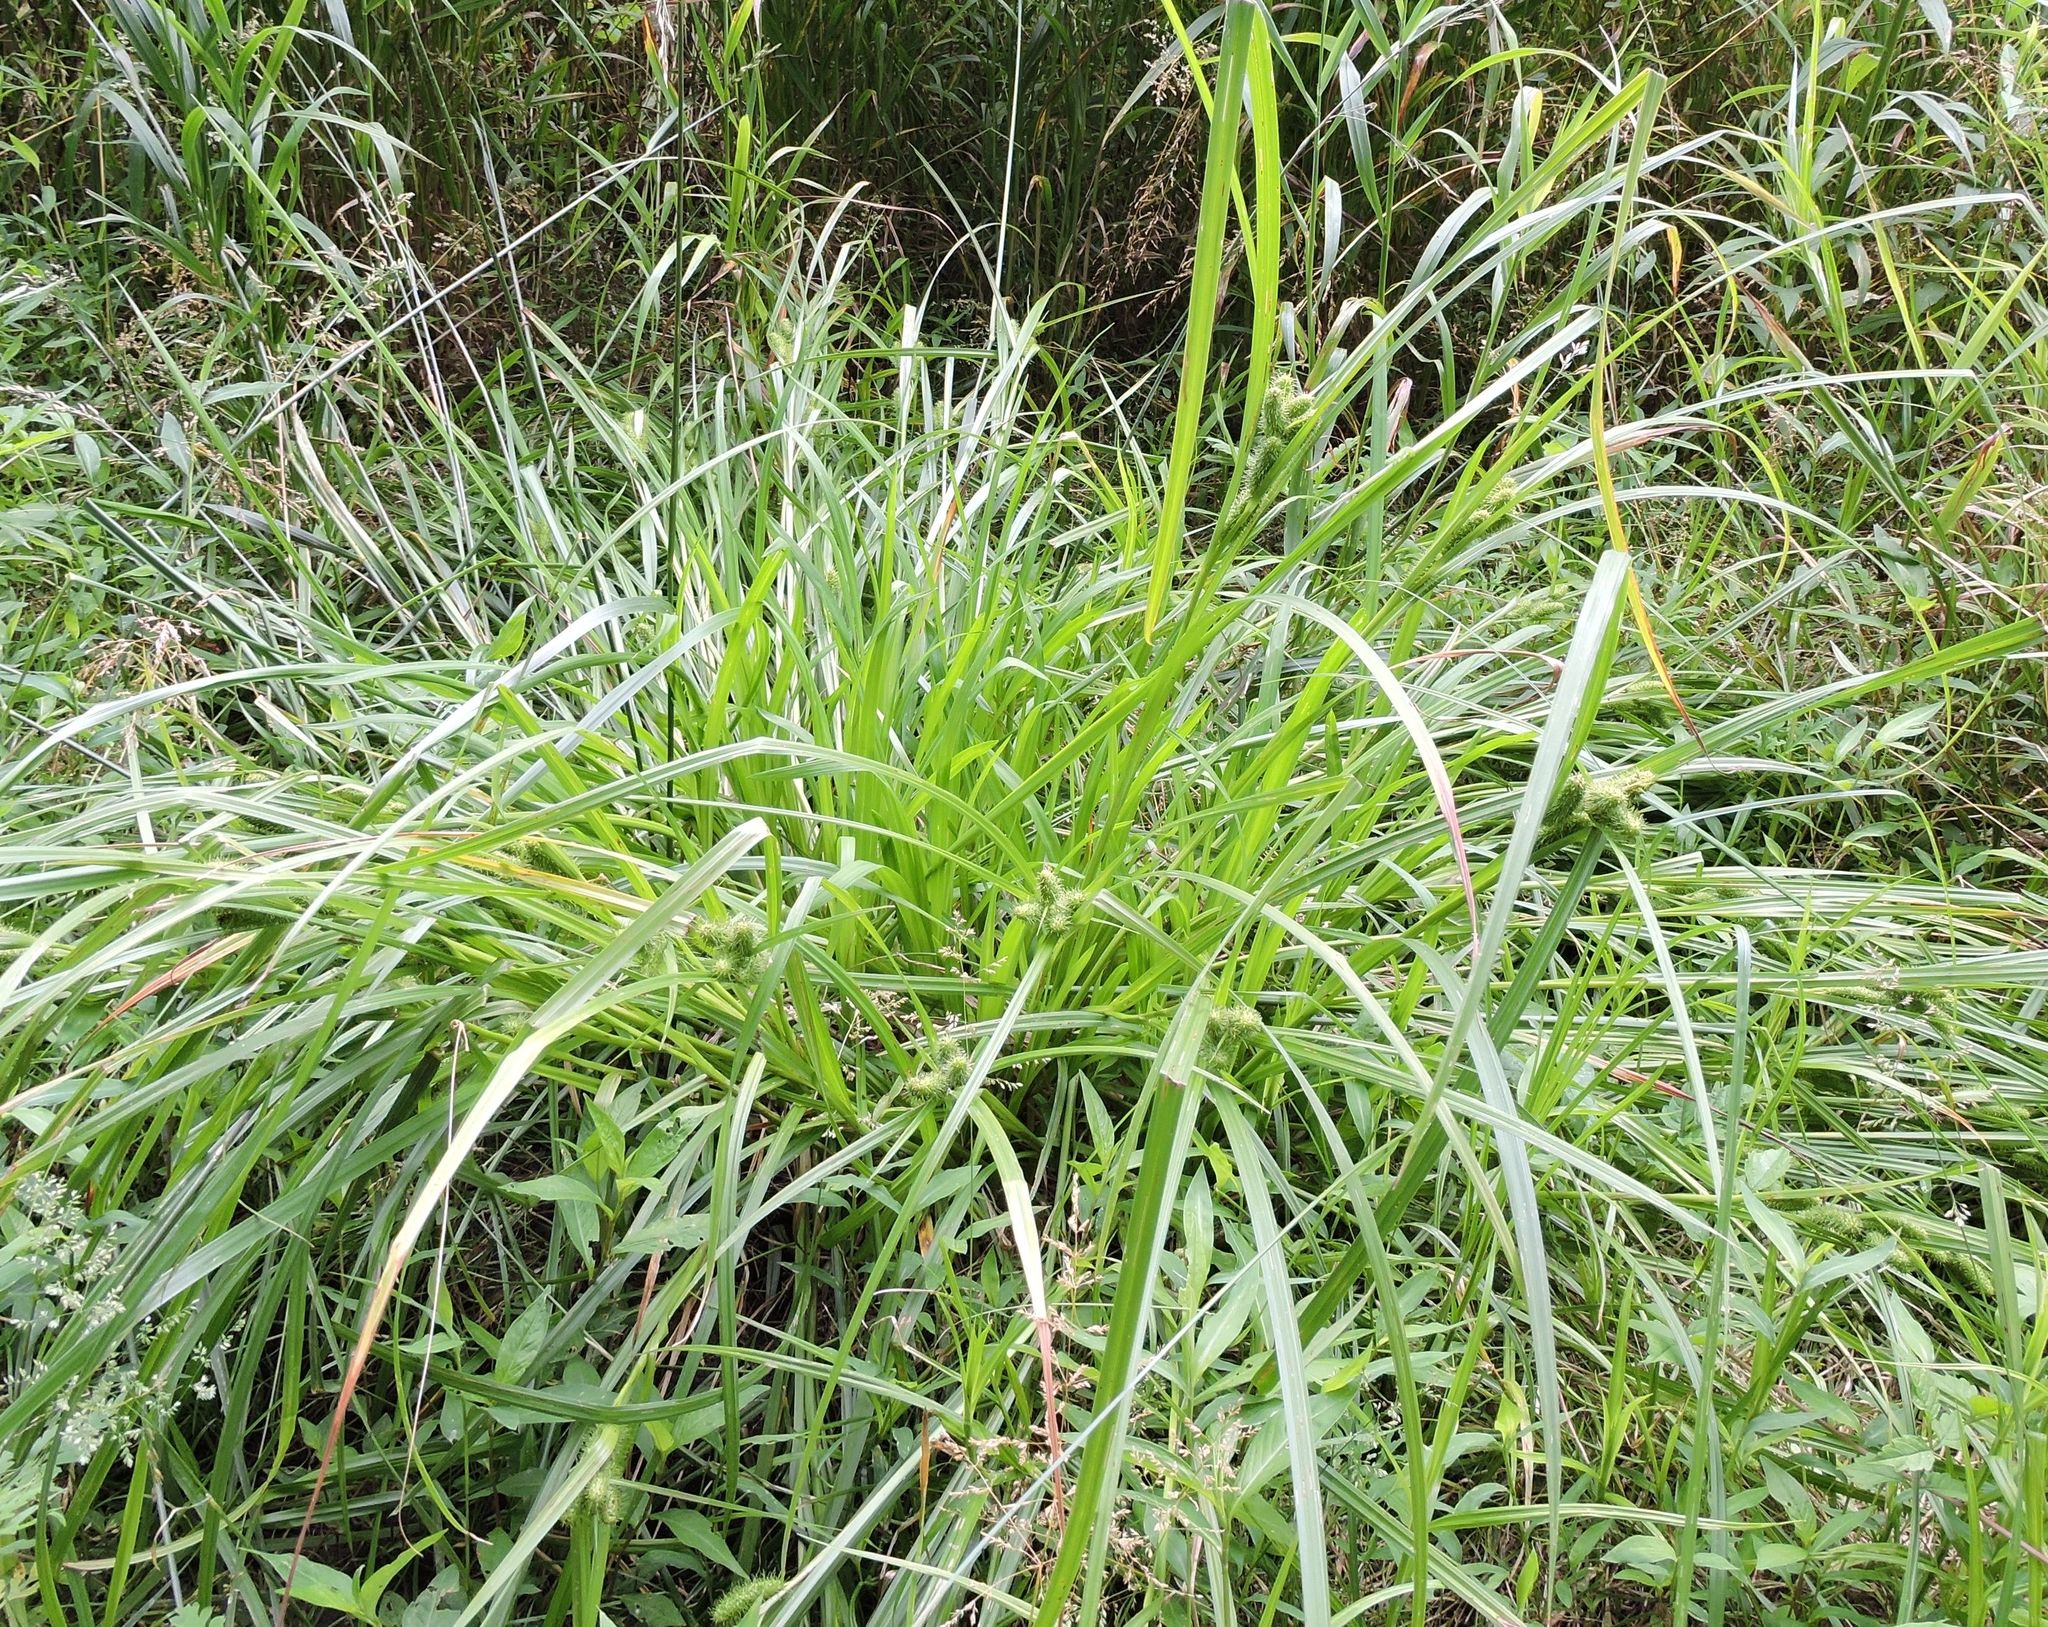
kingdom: Plantae
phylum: Tracheophyta
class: Liliopsida
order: Poales
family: Cyperaceae
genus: Carex
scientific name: Carex frankii
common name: Frank's sedge
